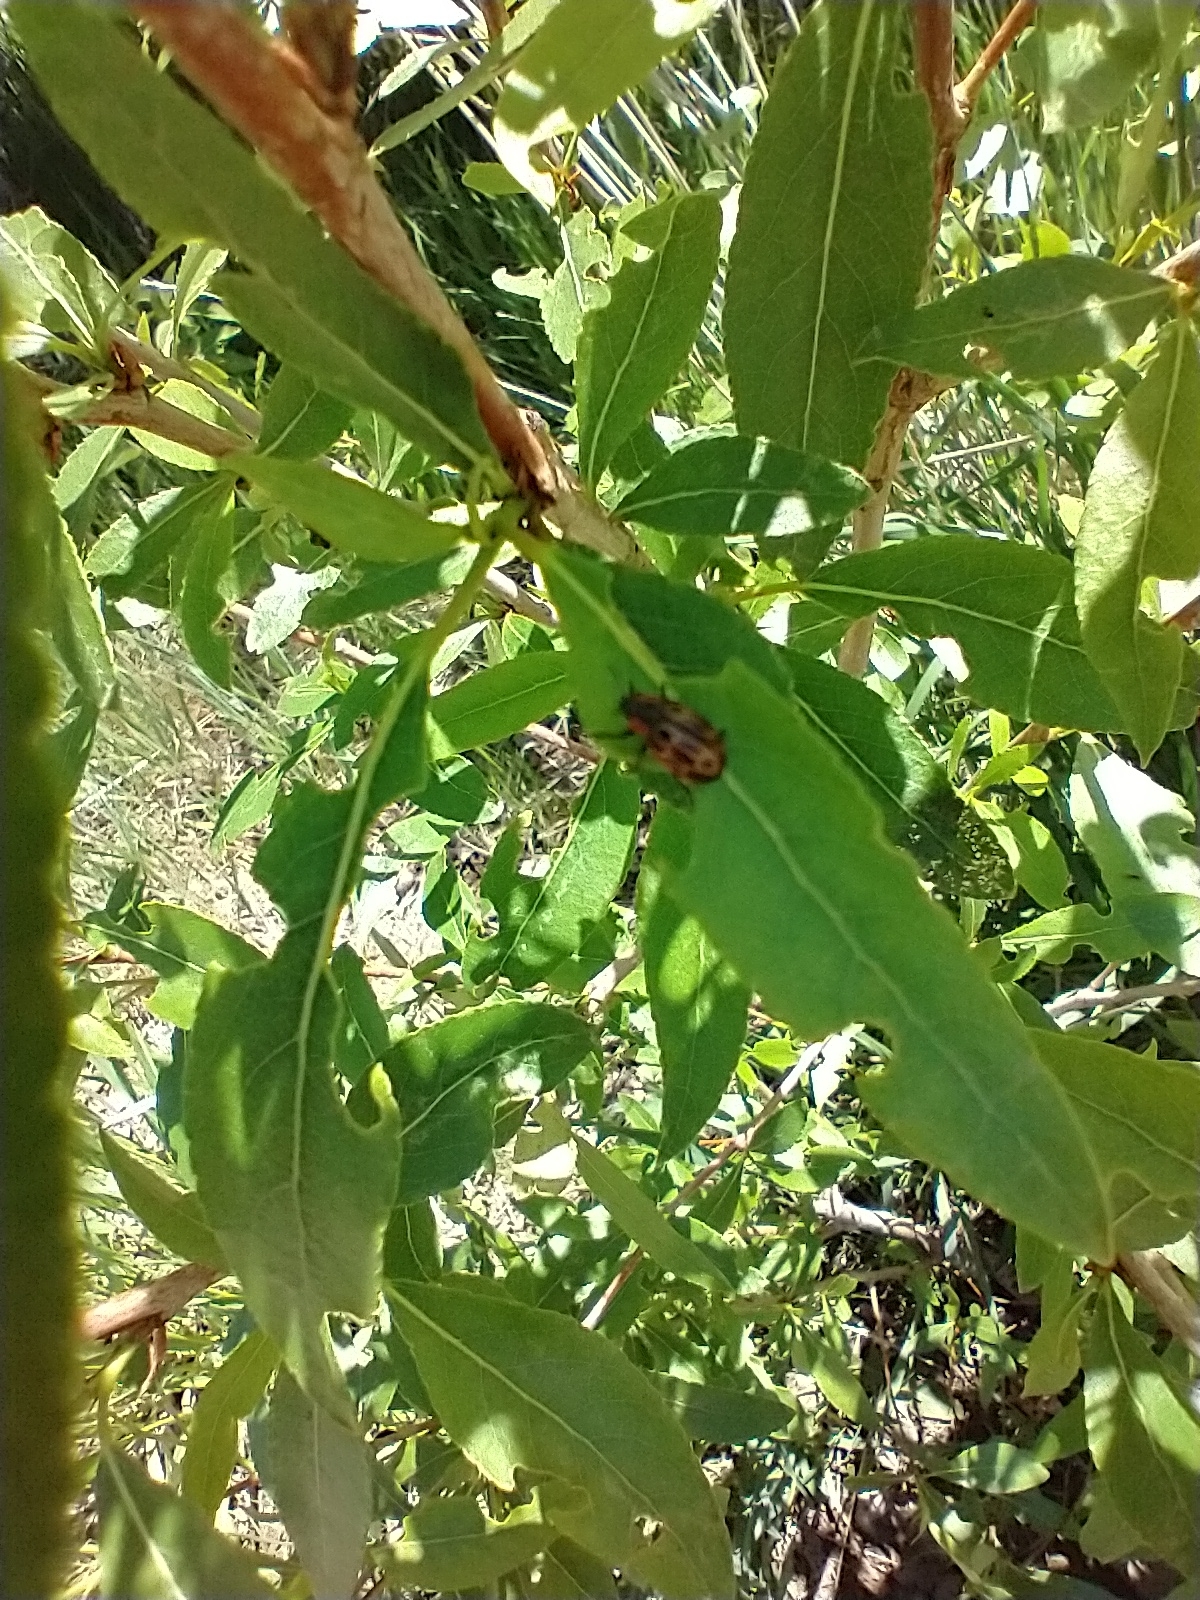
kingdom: Animalia
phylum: Arthropoda
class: Insecta
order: Coleoptera
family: Chrysomelidae
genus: Aethiopocassis
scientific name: Aethiopocassis scripta
